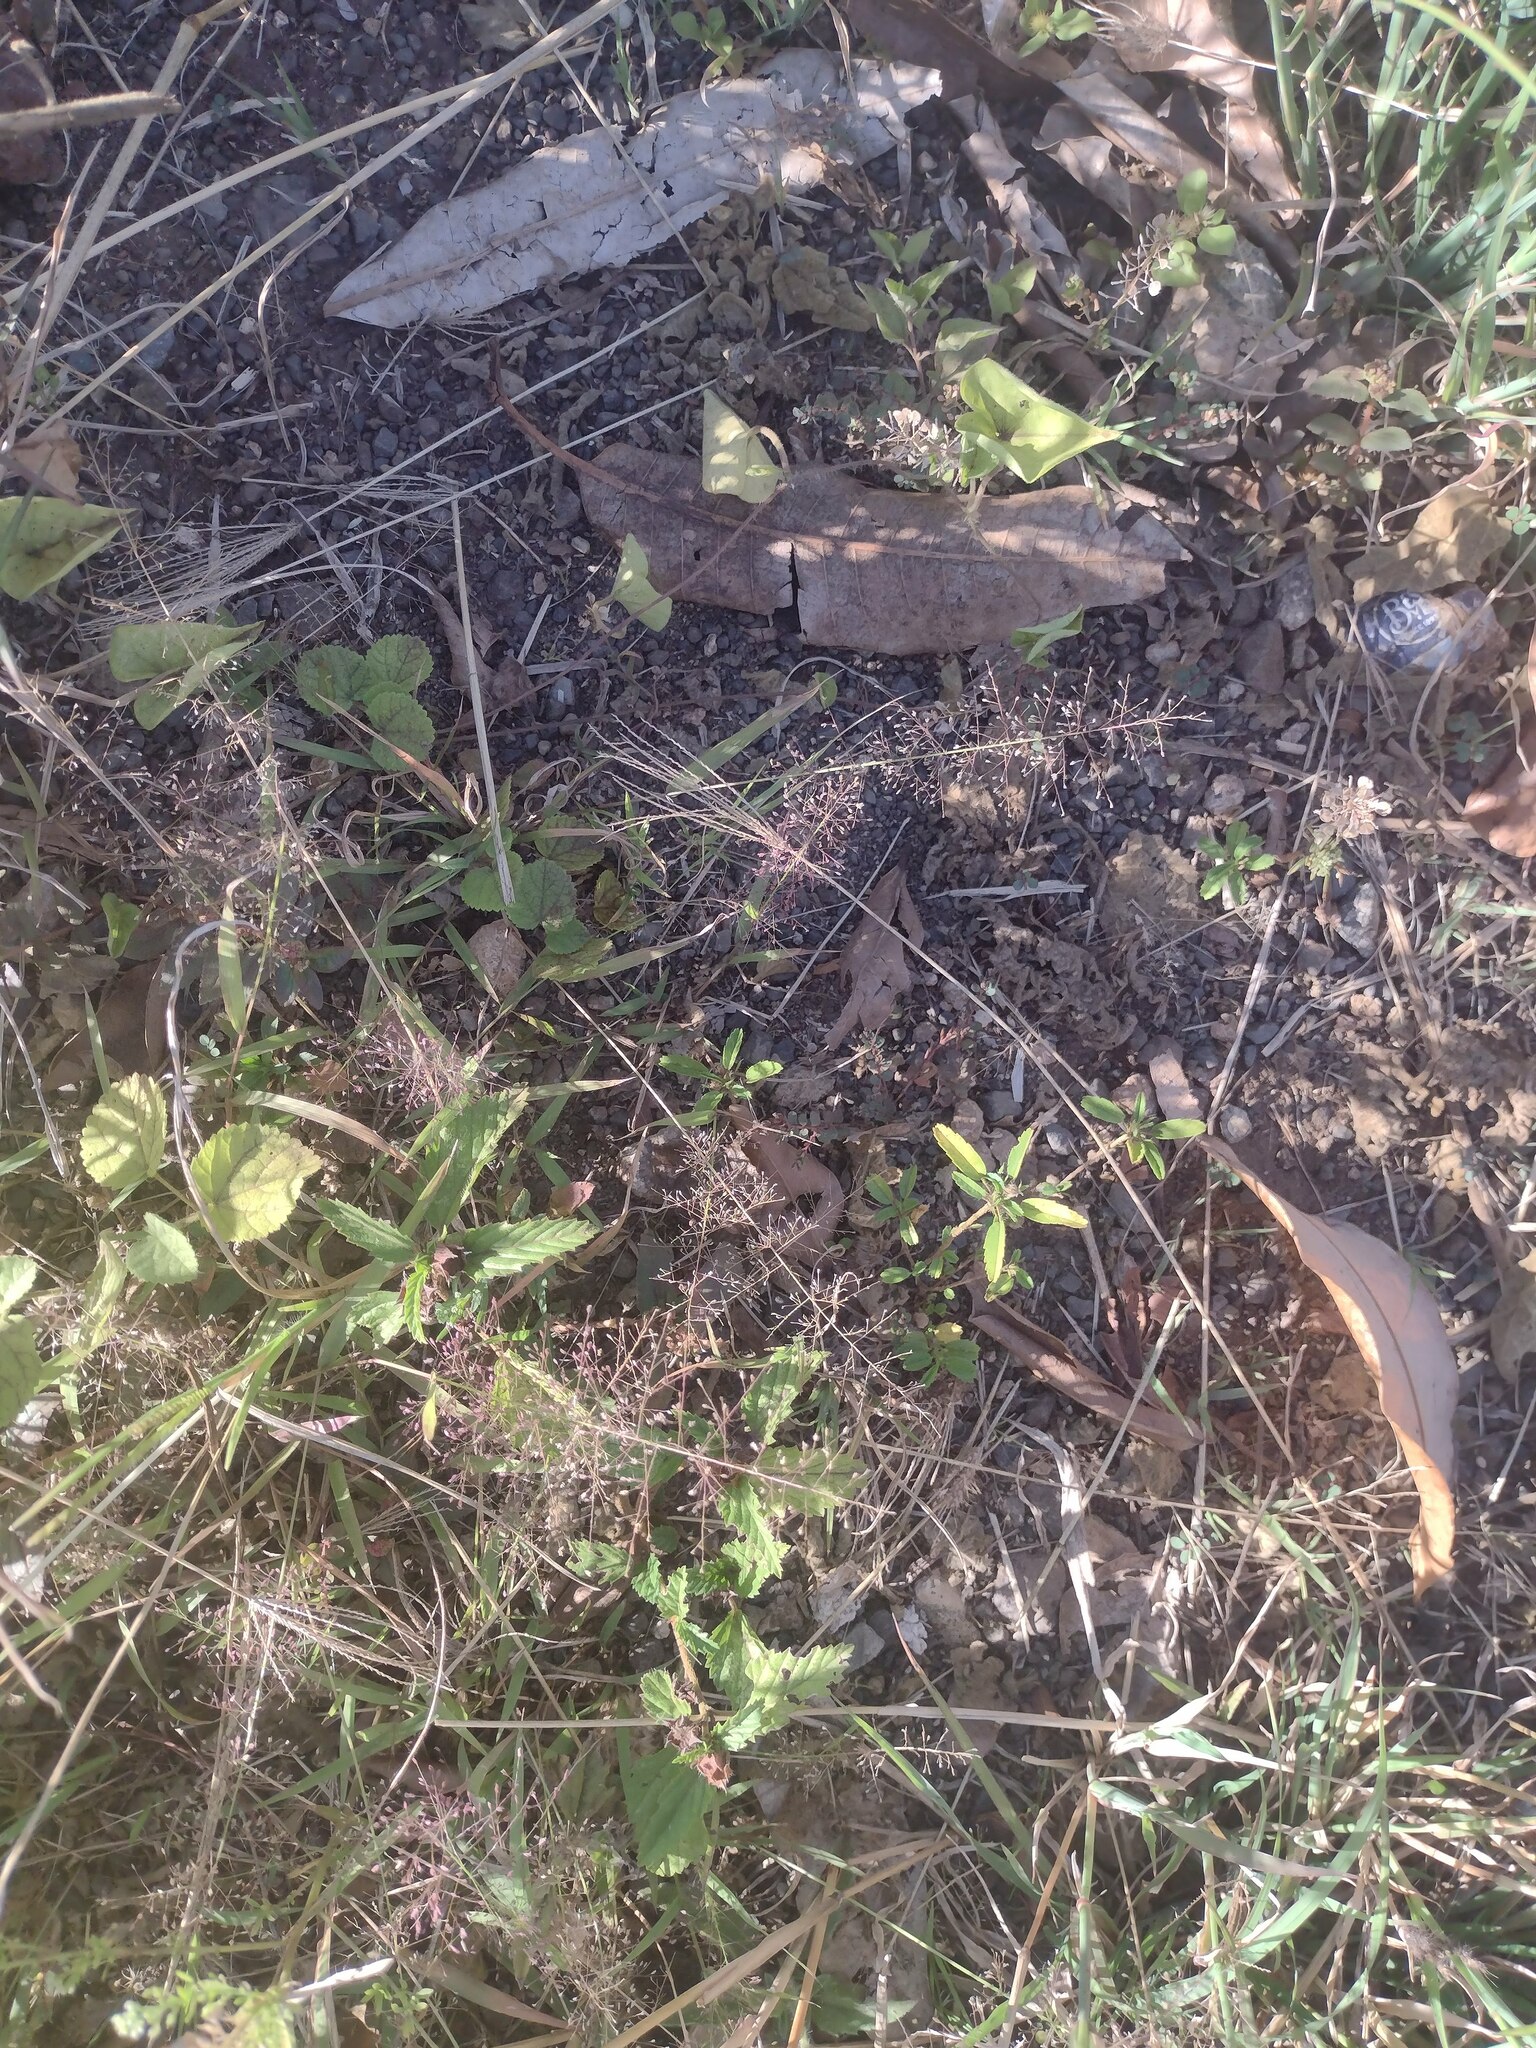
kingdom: Plantae
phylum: Tracheophyta
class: Liliopsida
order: Poales
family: Poaceae
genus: Eragrostis
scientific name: Eragrostis tenella
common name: Japanese lovegrass
